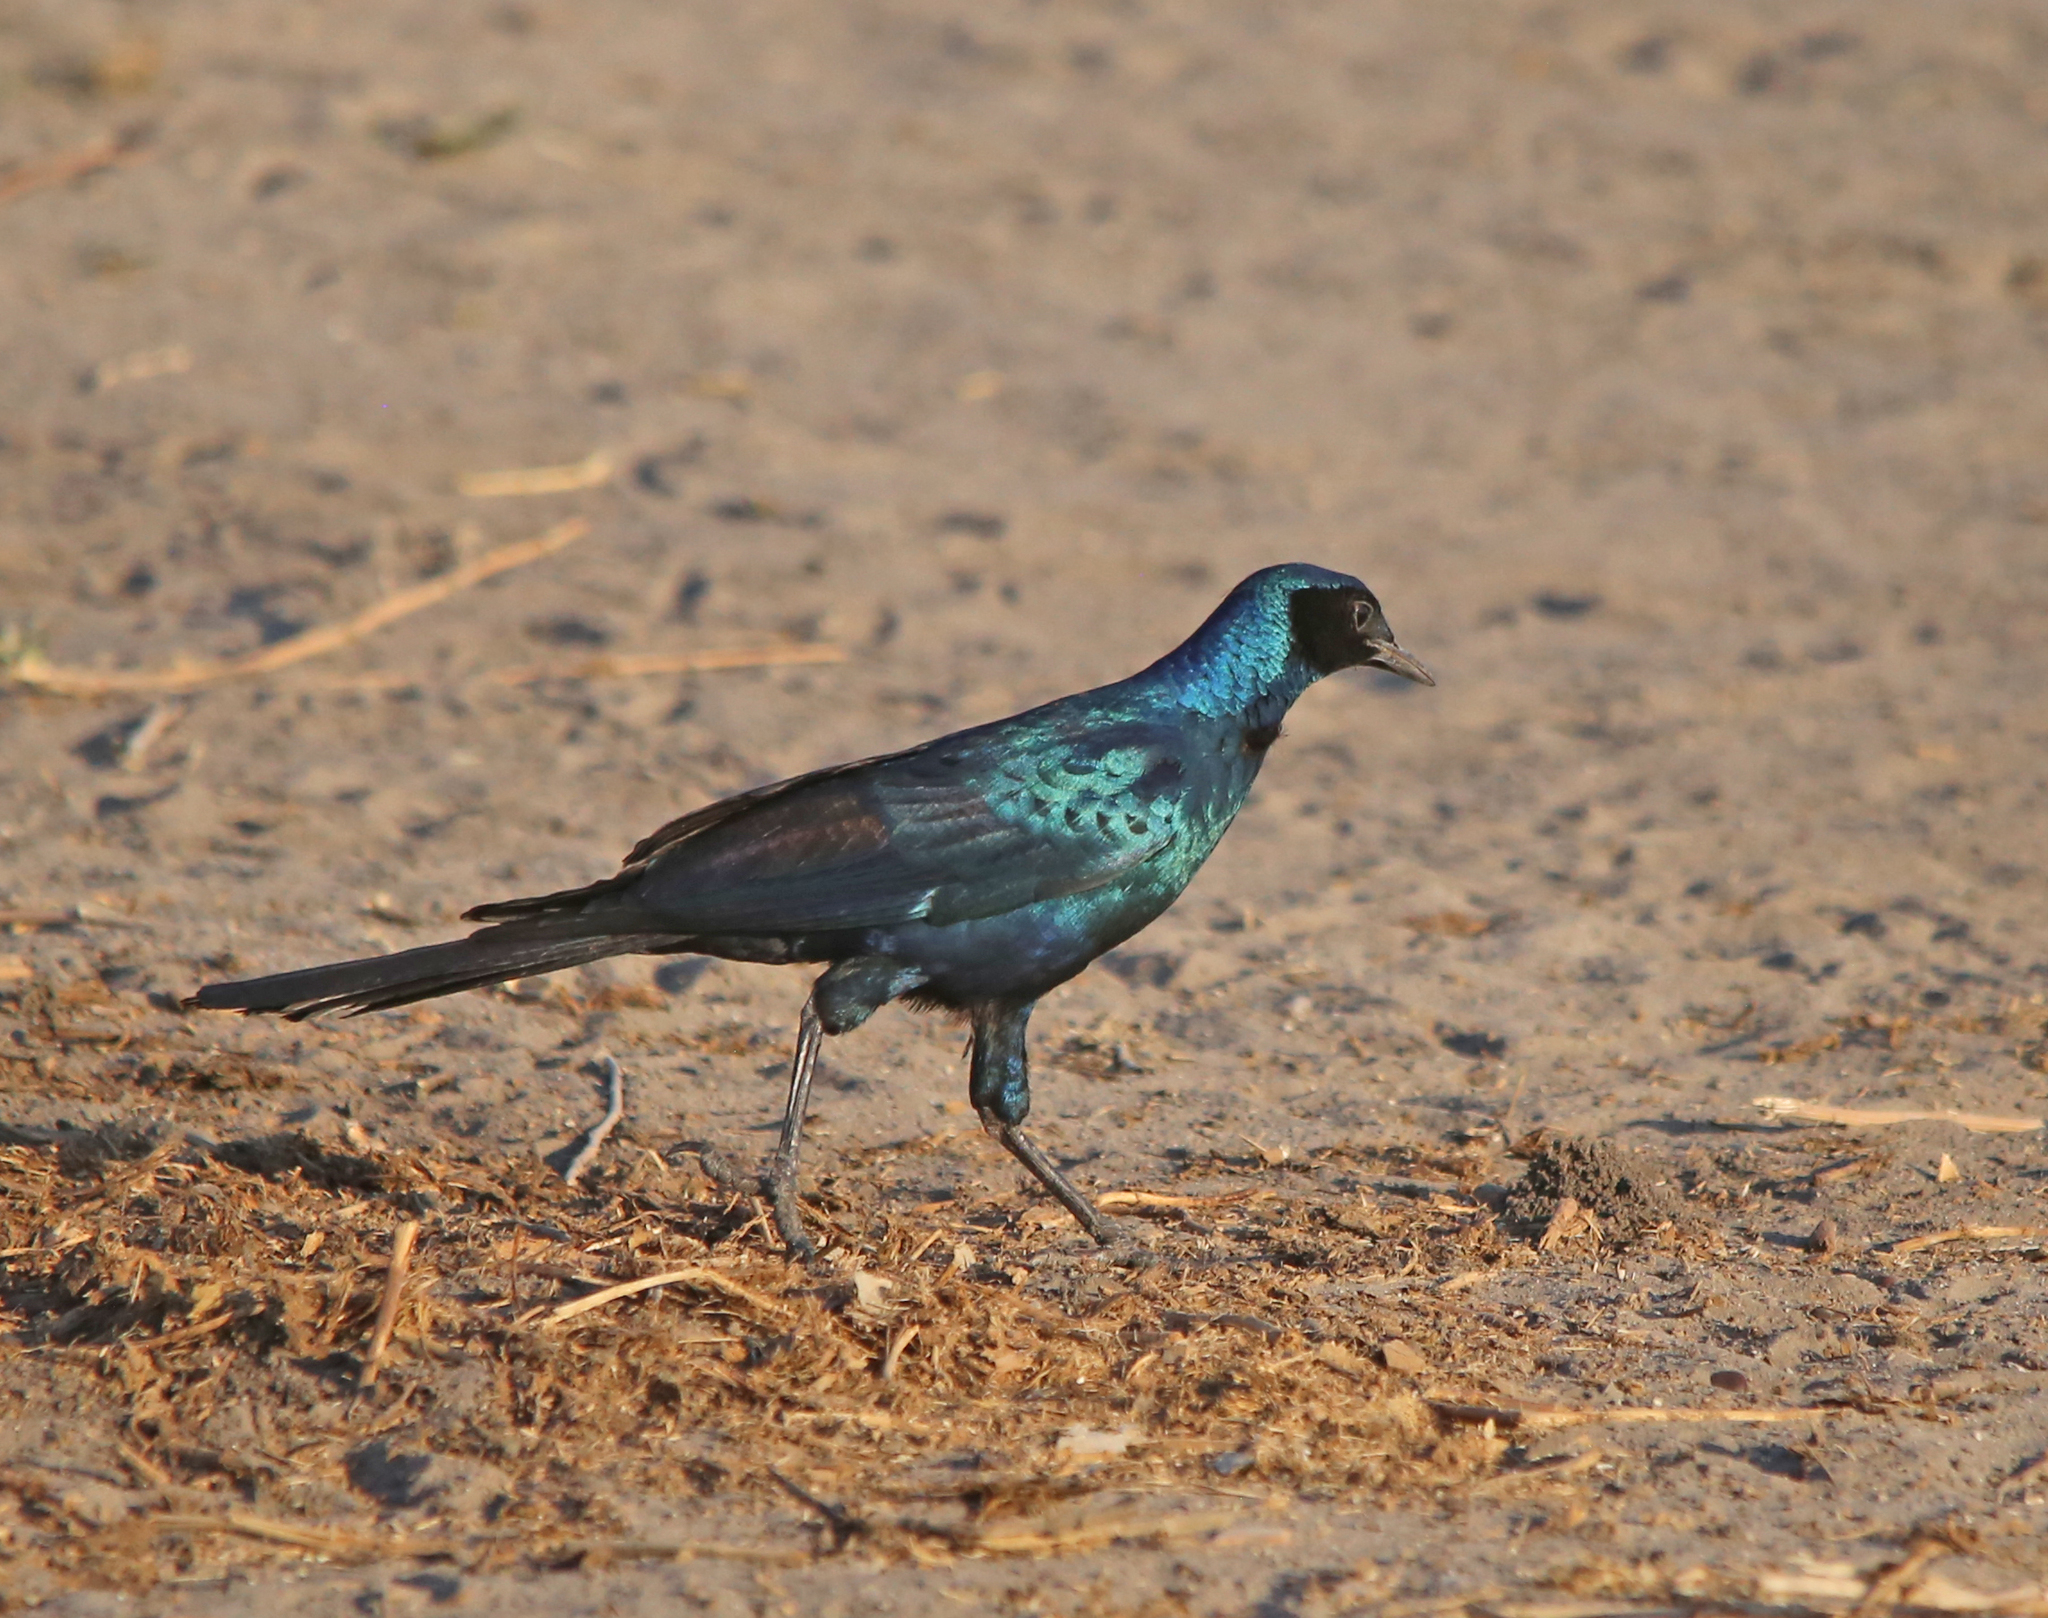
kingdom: Animalia
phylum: Chordata
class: Aves
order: Passeriformes
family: Sturnidae
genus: Lamprotornis
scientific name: Lamprotornis australis
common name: Burchell's starling
